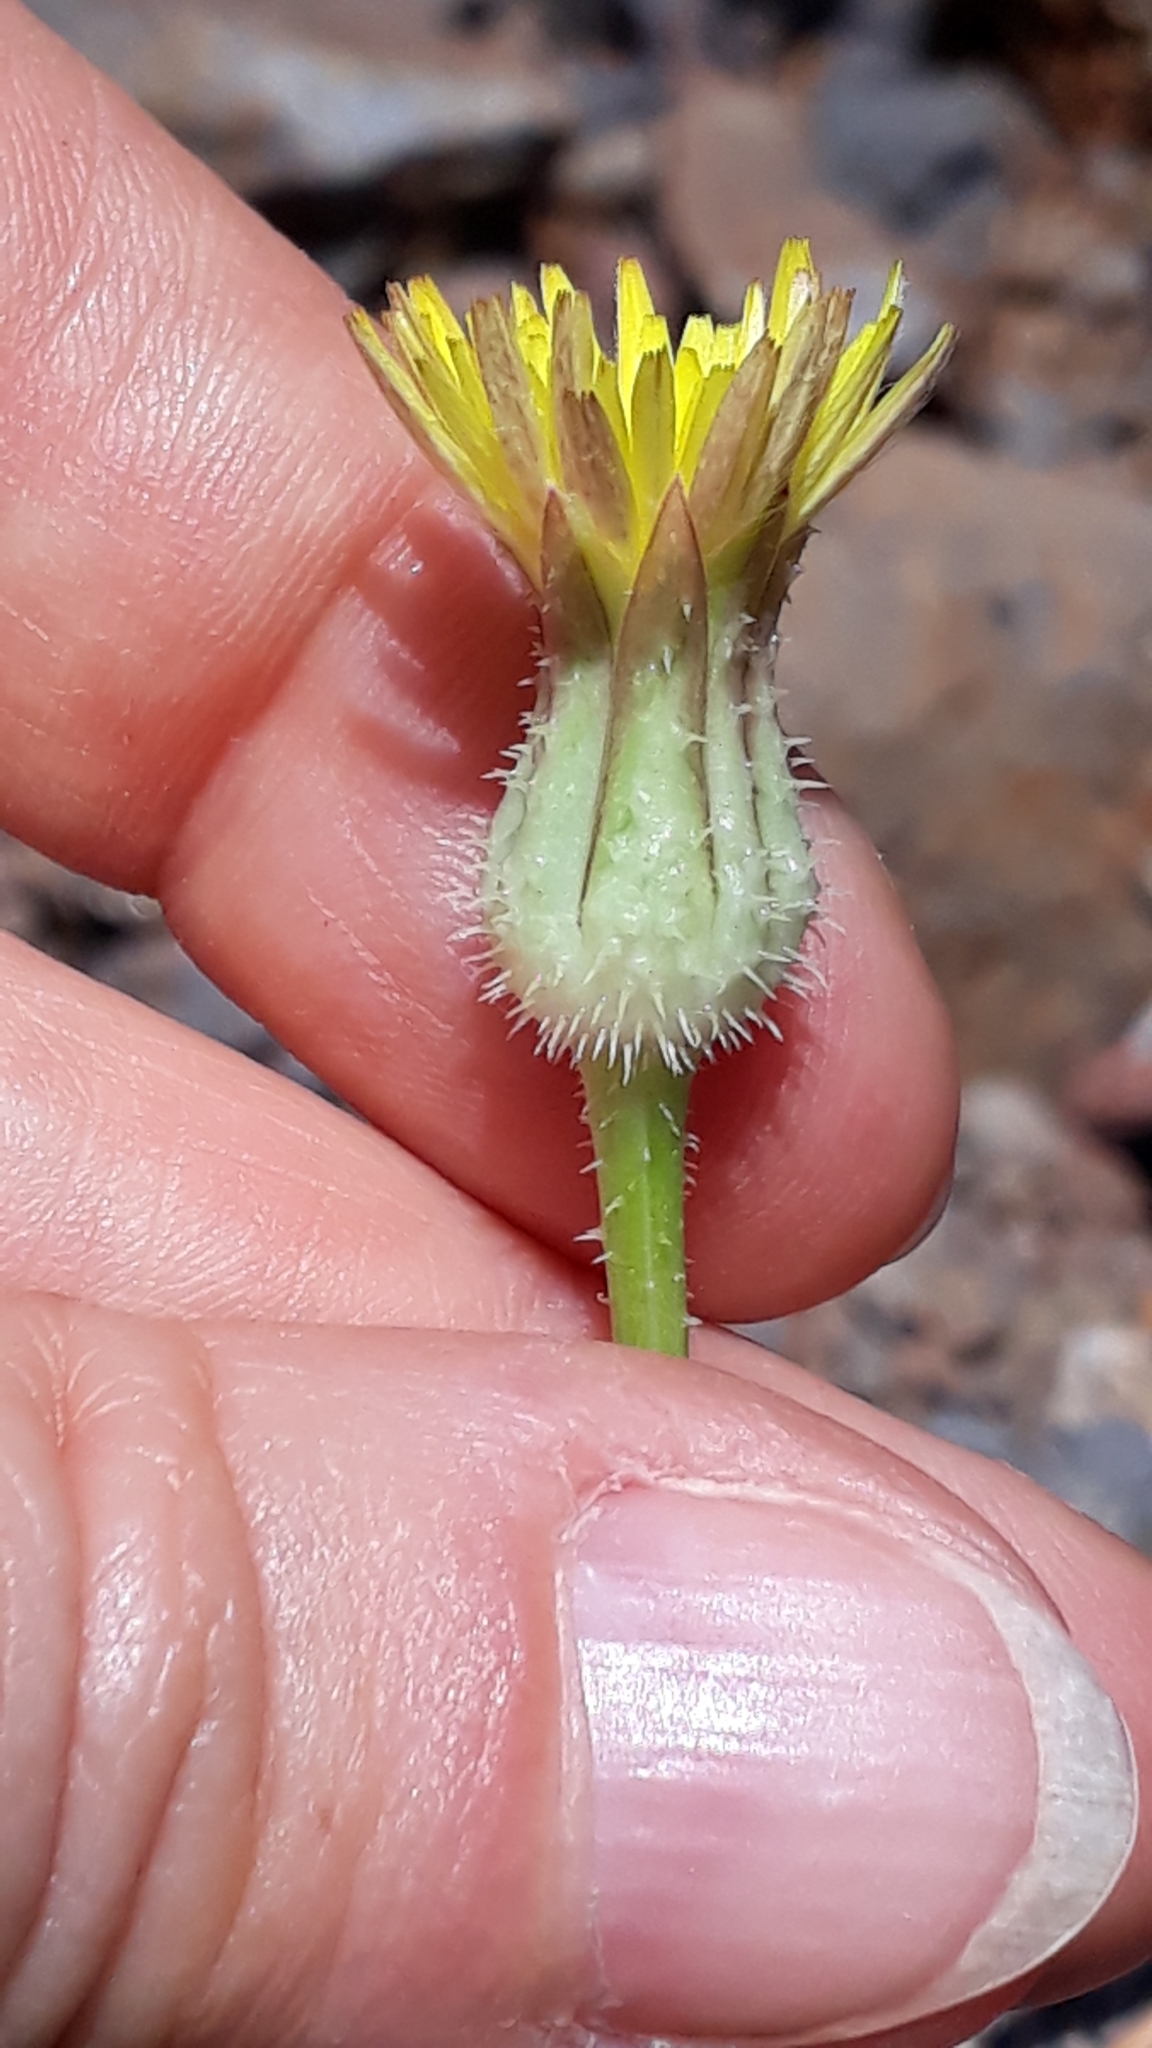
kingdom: Plantae
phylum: Tracheophyta
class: Magnoliopsida
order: Asterales
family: Asteraceae
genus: Urospermum
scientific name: Urospermum picroides
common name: False hawkbit
